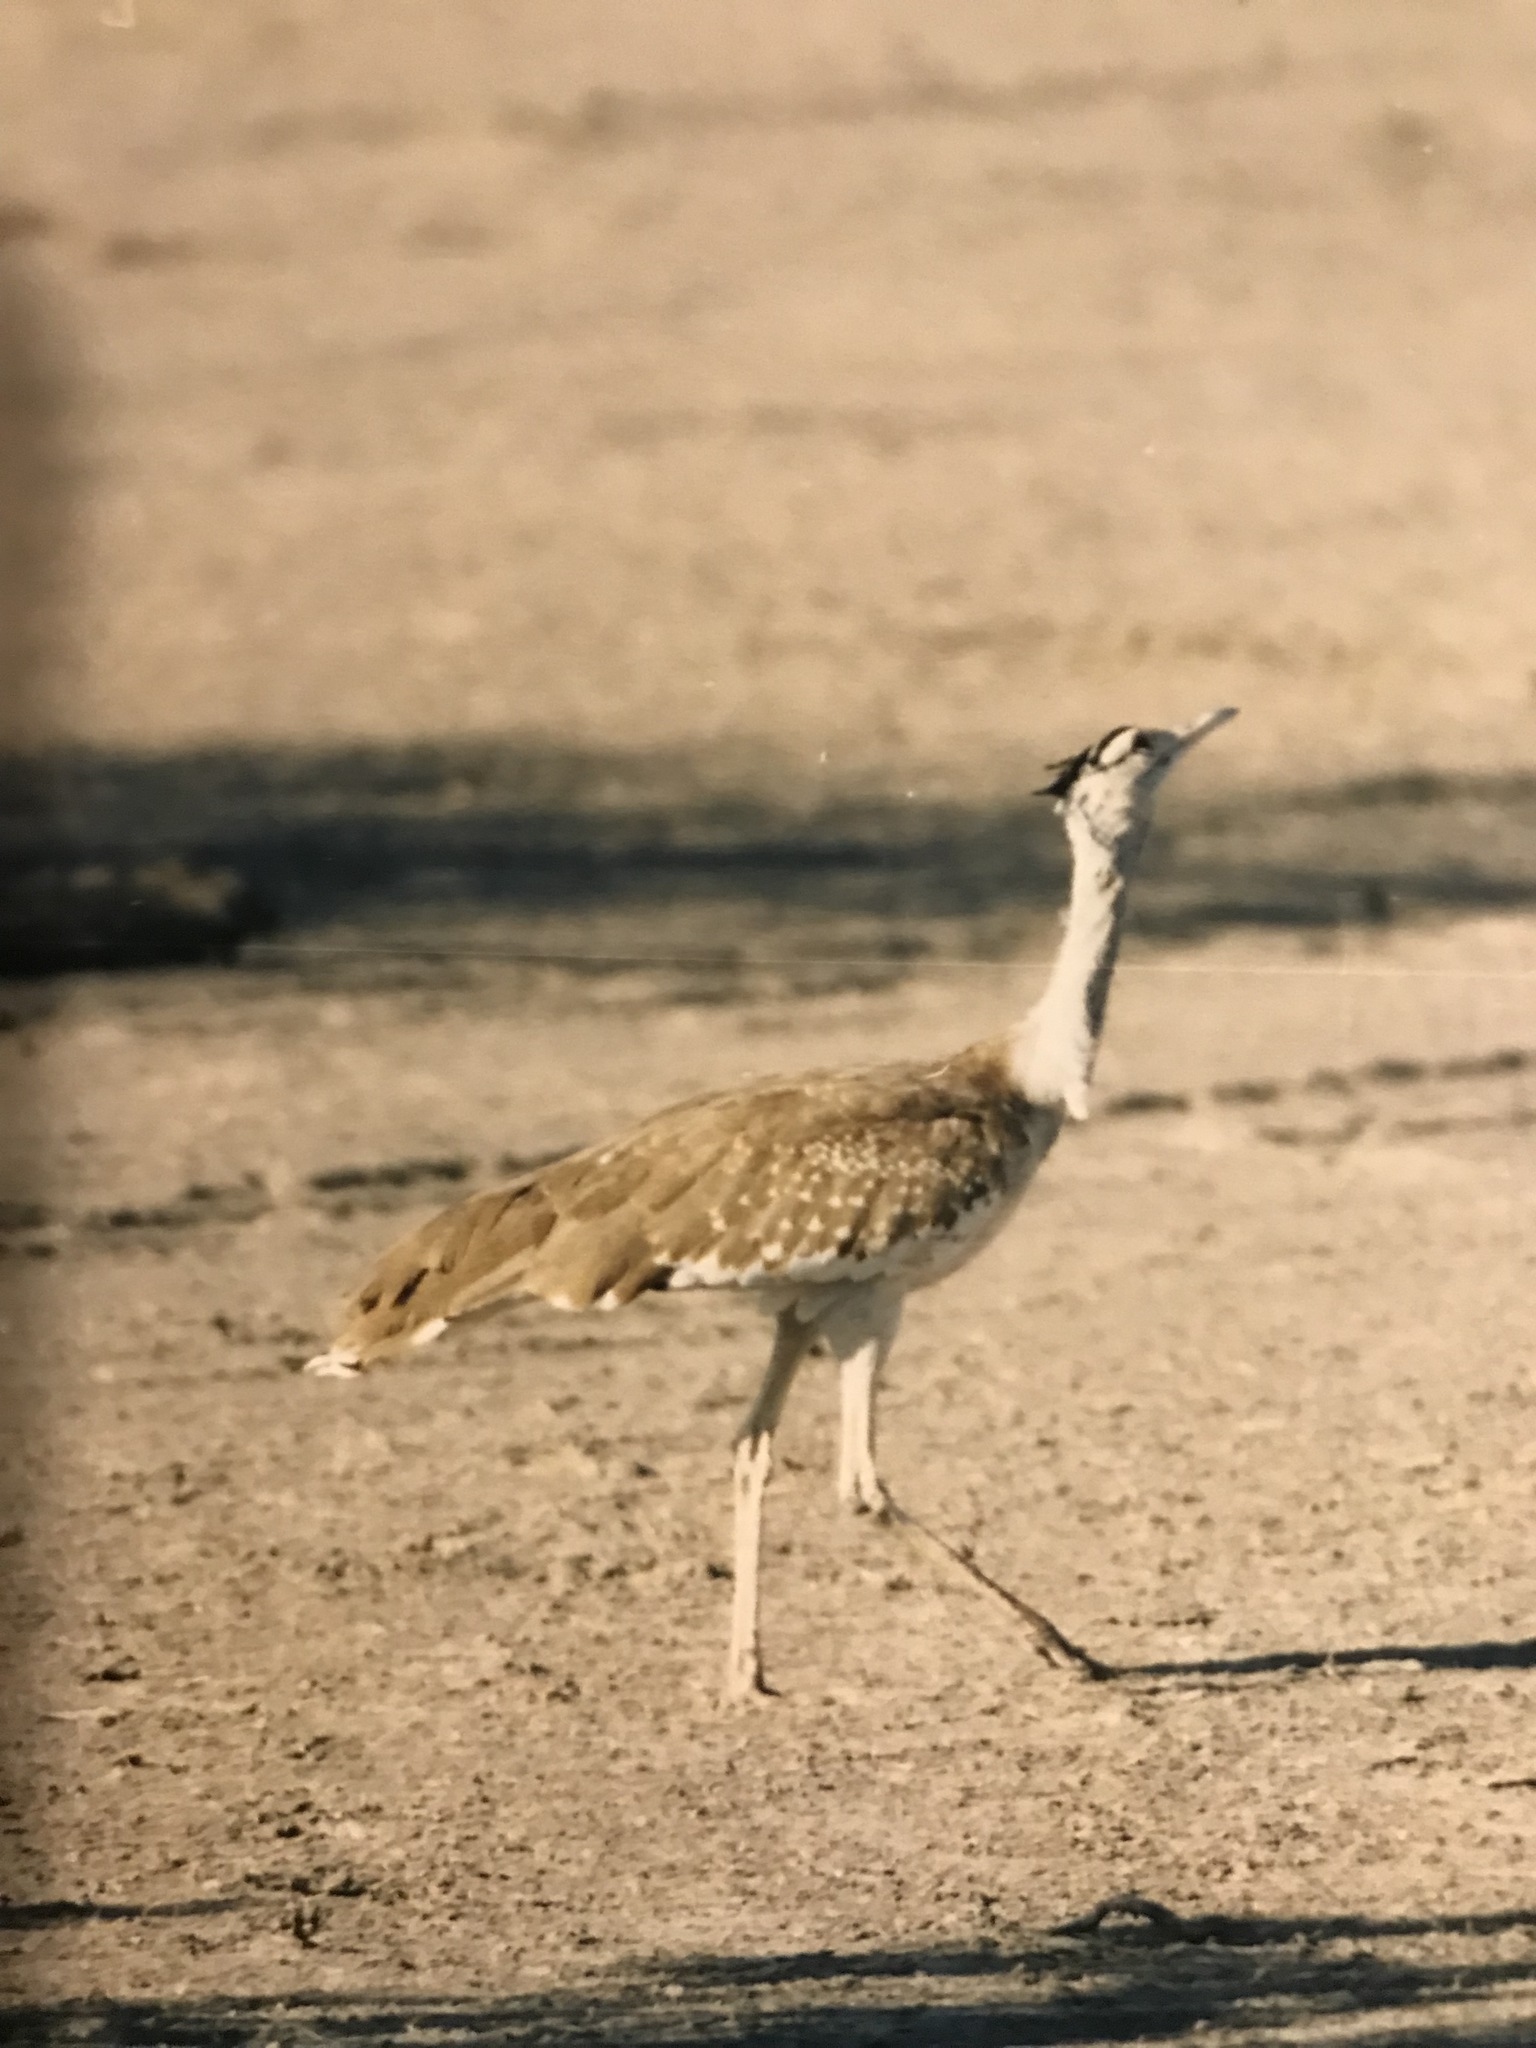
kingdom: Animalia
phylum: Chordata
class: Aves
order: Otidiformes
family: Otididae
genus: Ardeotis
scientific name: Ardeotis arabs
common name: Arabian bustard
